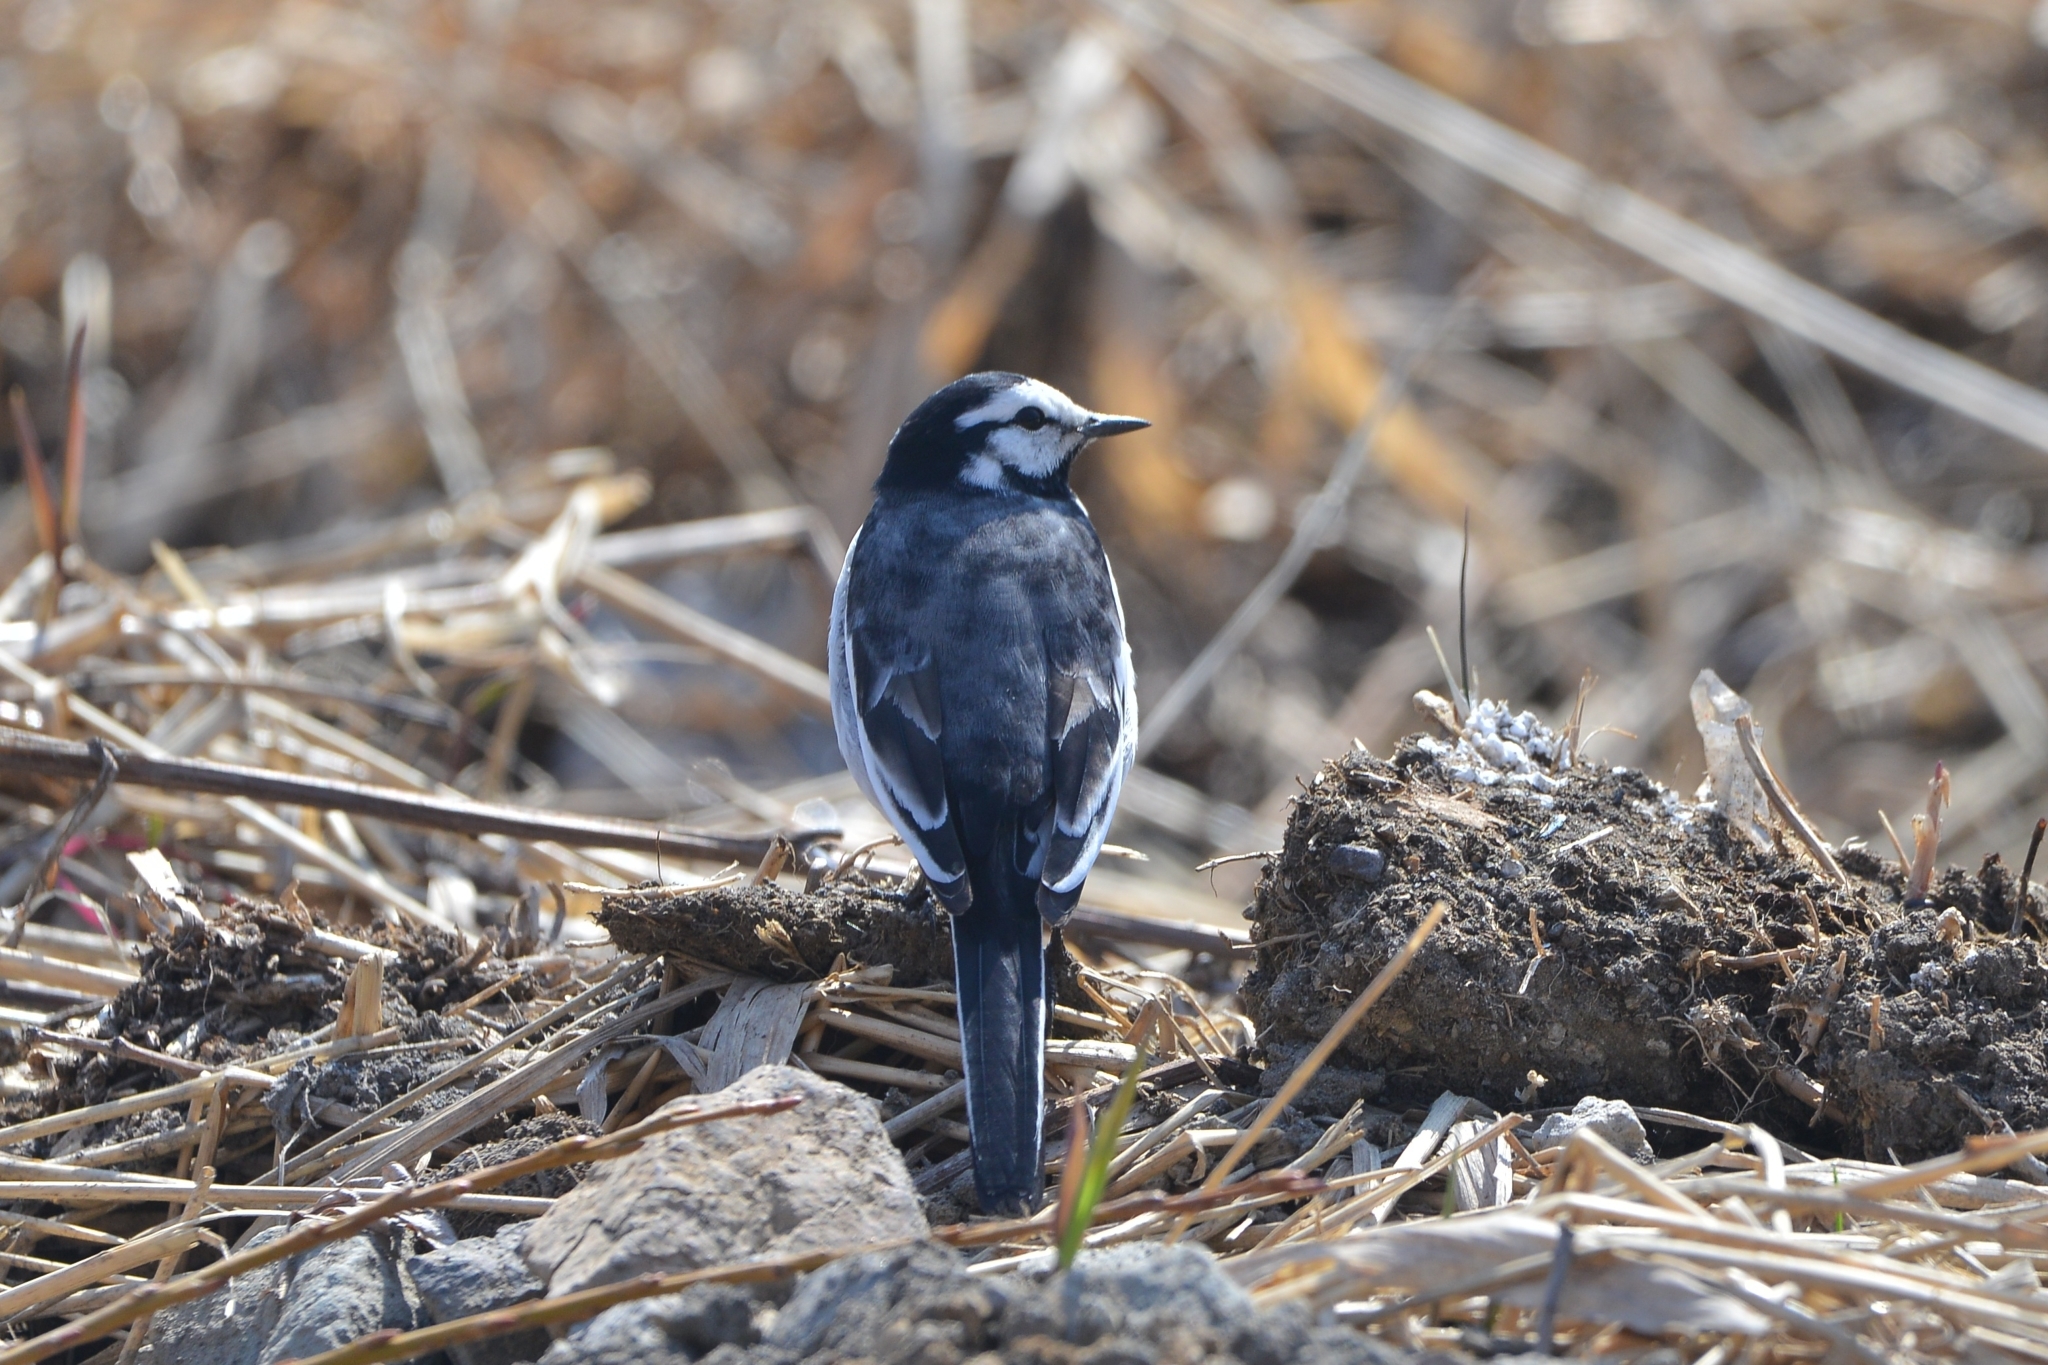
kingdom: Animalia
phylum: Chordata
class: Aves
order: Passeriformes
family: Motacillidae
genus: Motacilla
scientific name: Motacilla alba
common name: White wagtail
